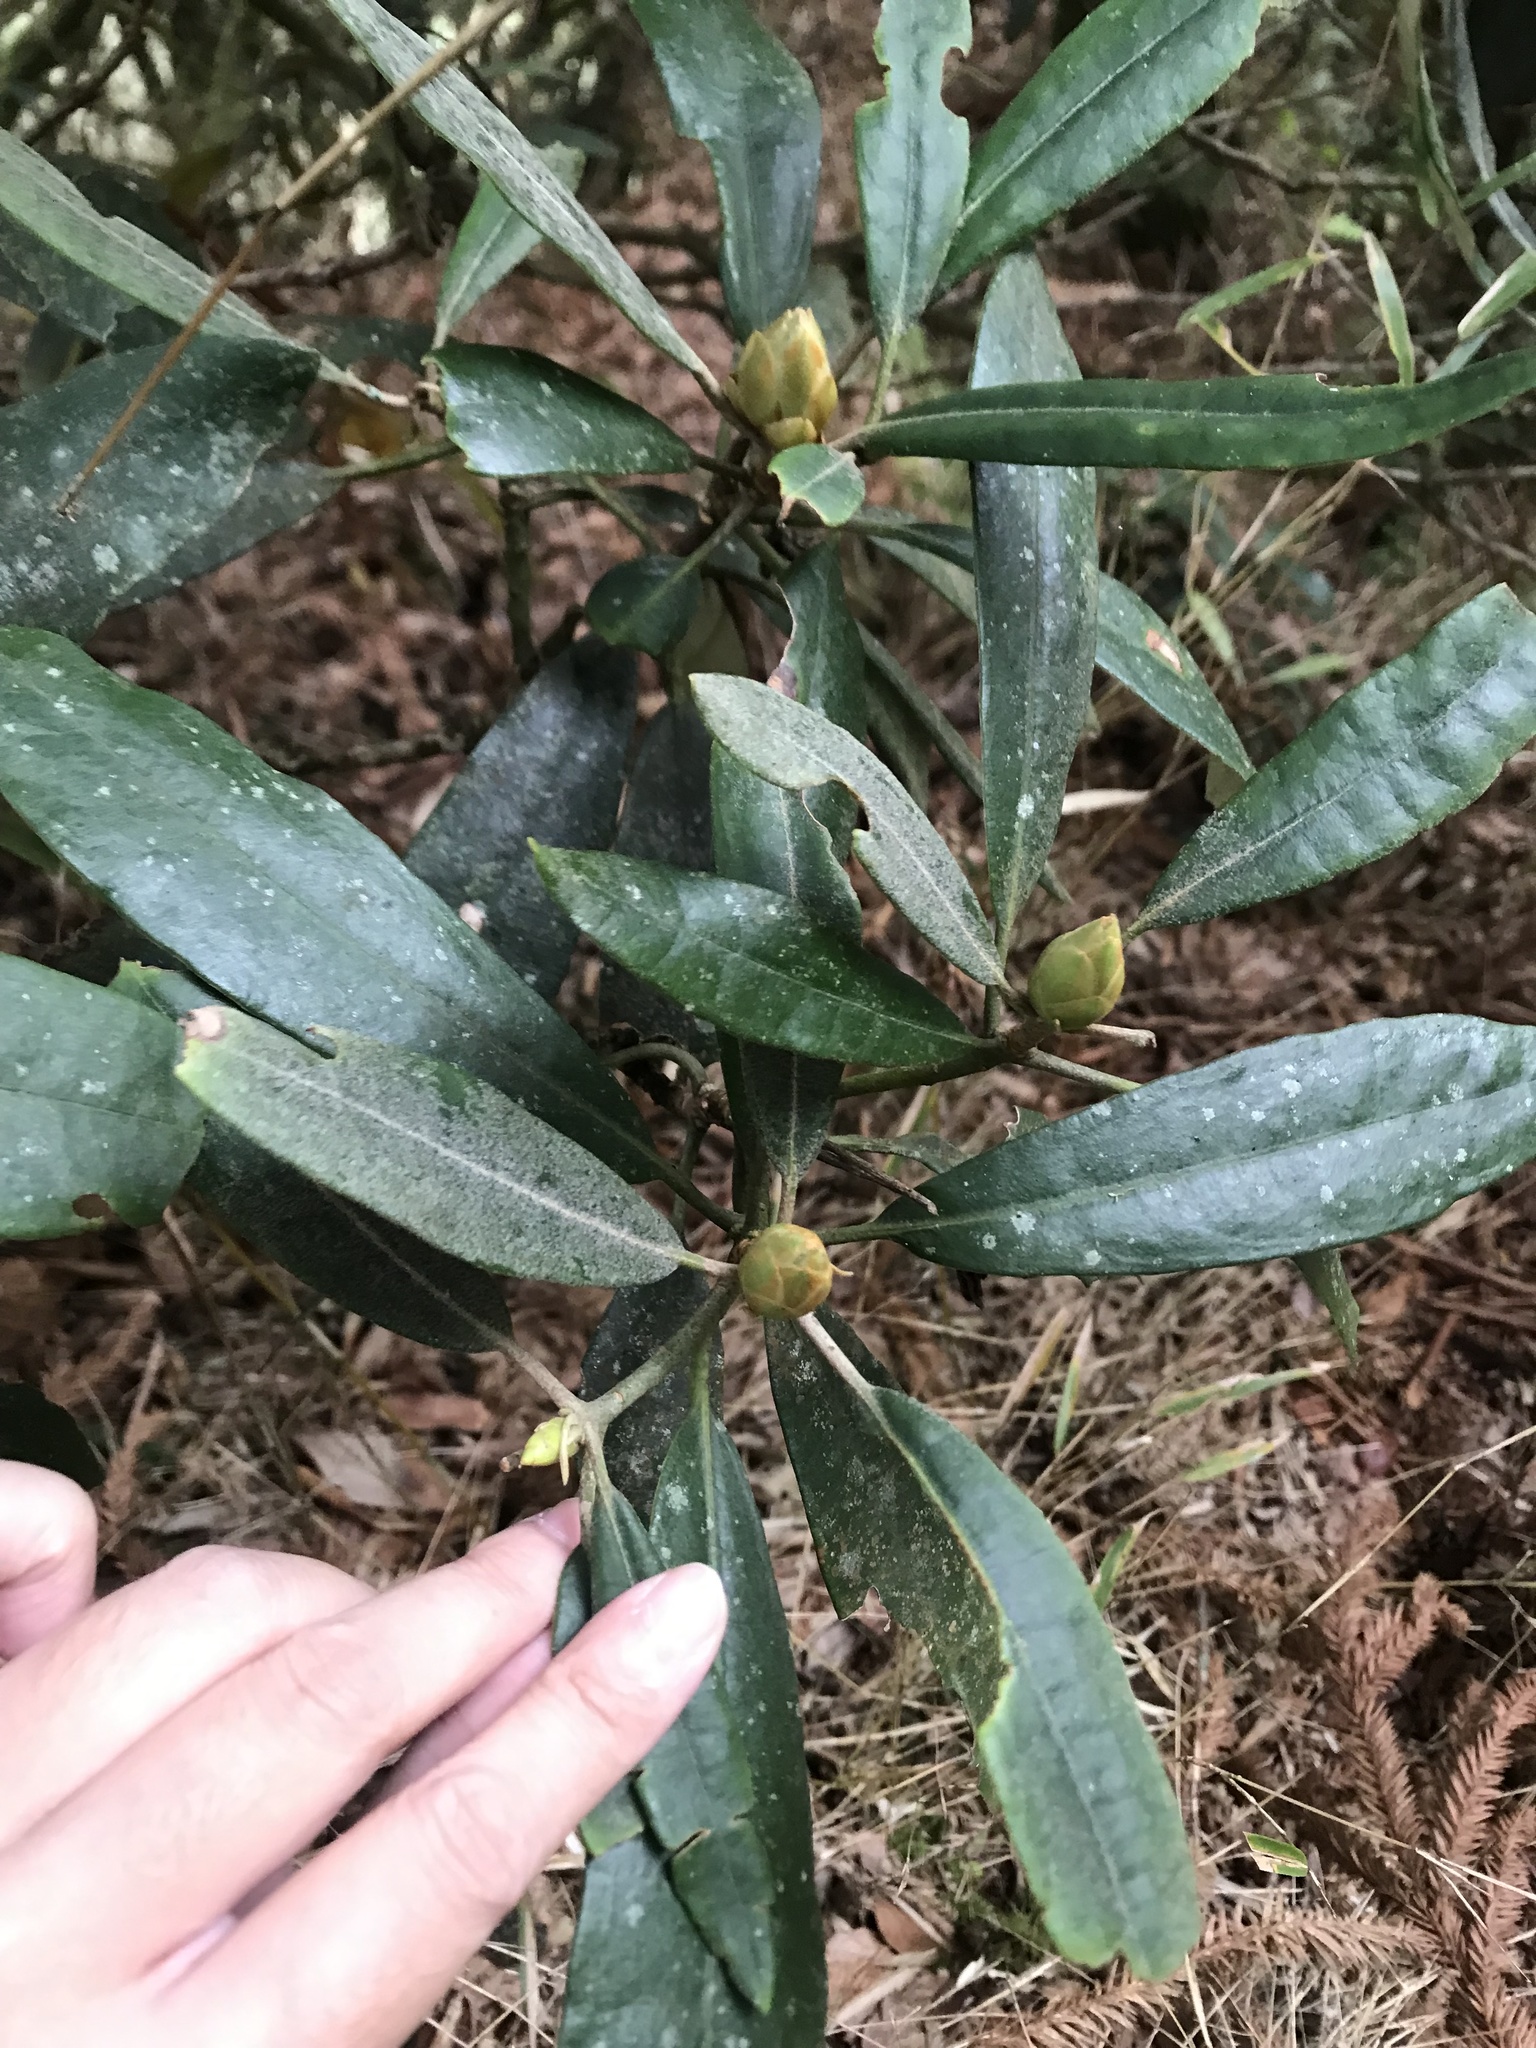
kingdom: Plantae
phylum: Tracheophyta
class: Magnoliopsida
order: Ericales
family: Ericaceae
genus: Rhododendron
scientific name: Rhododendron formosanum
